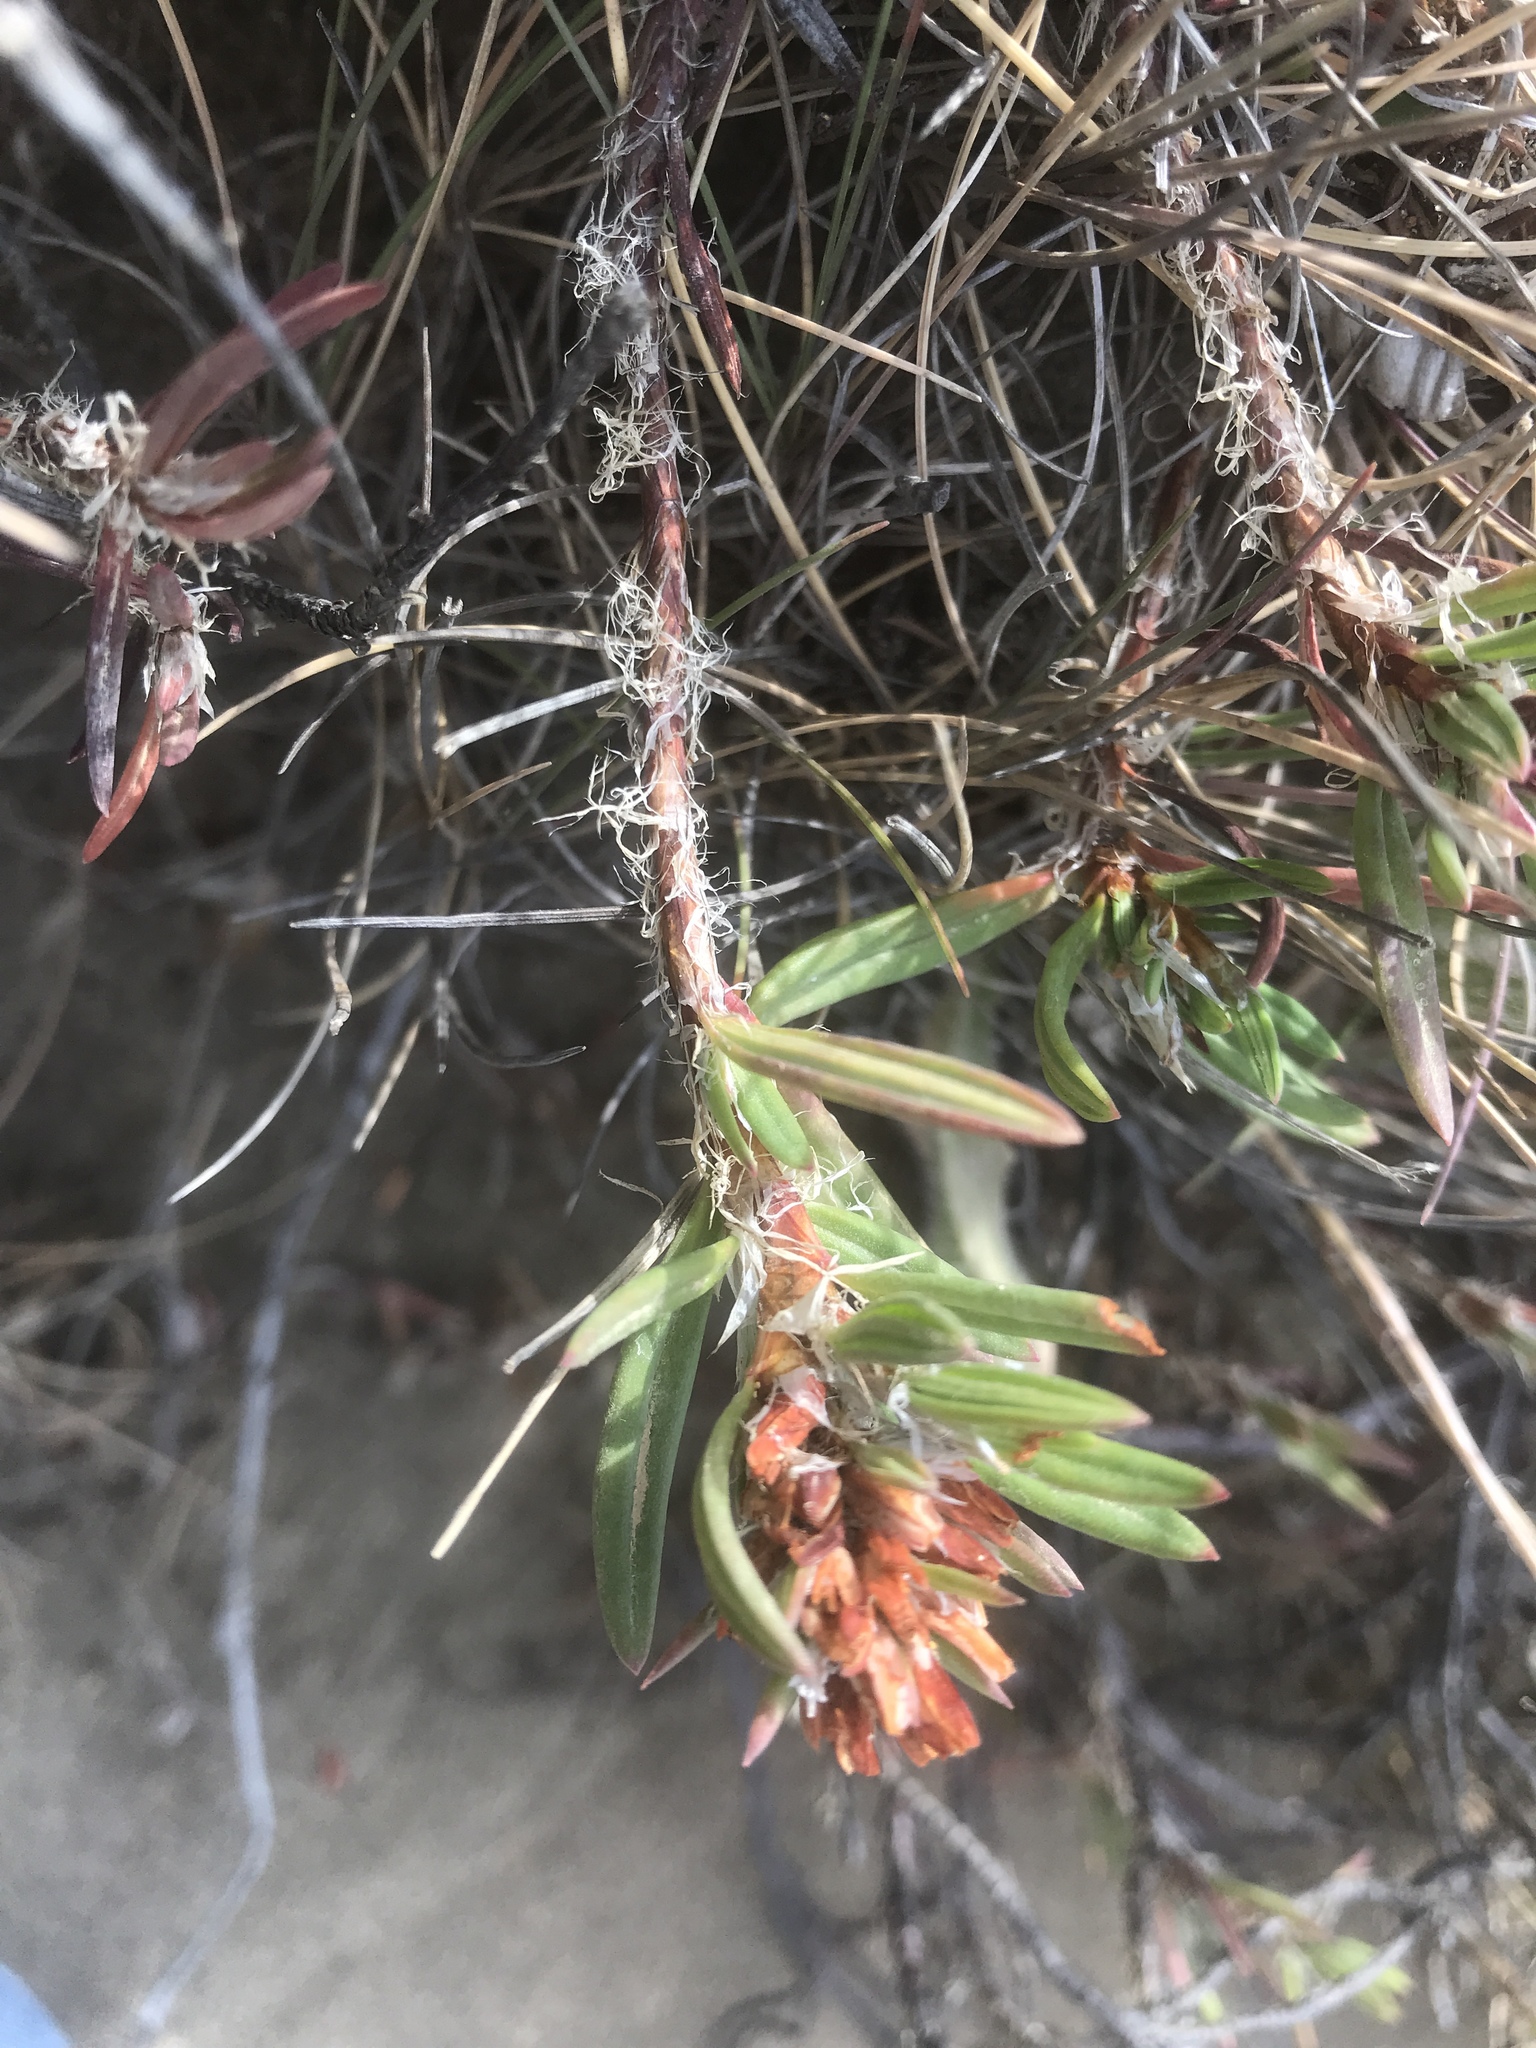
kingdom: Plantae
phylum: Tracheophyta
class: Magnoliopsida
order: Caryophyllales
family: Polygonaceae
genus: Polygonum
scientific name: Polygonum paronychia
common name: Dune knotweed
